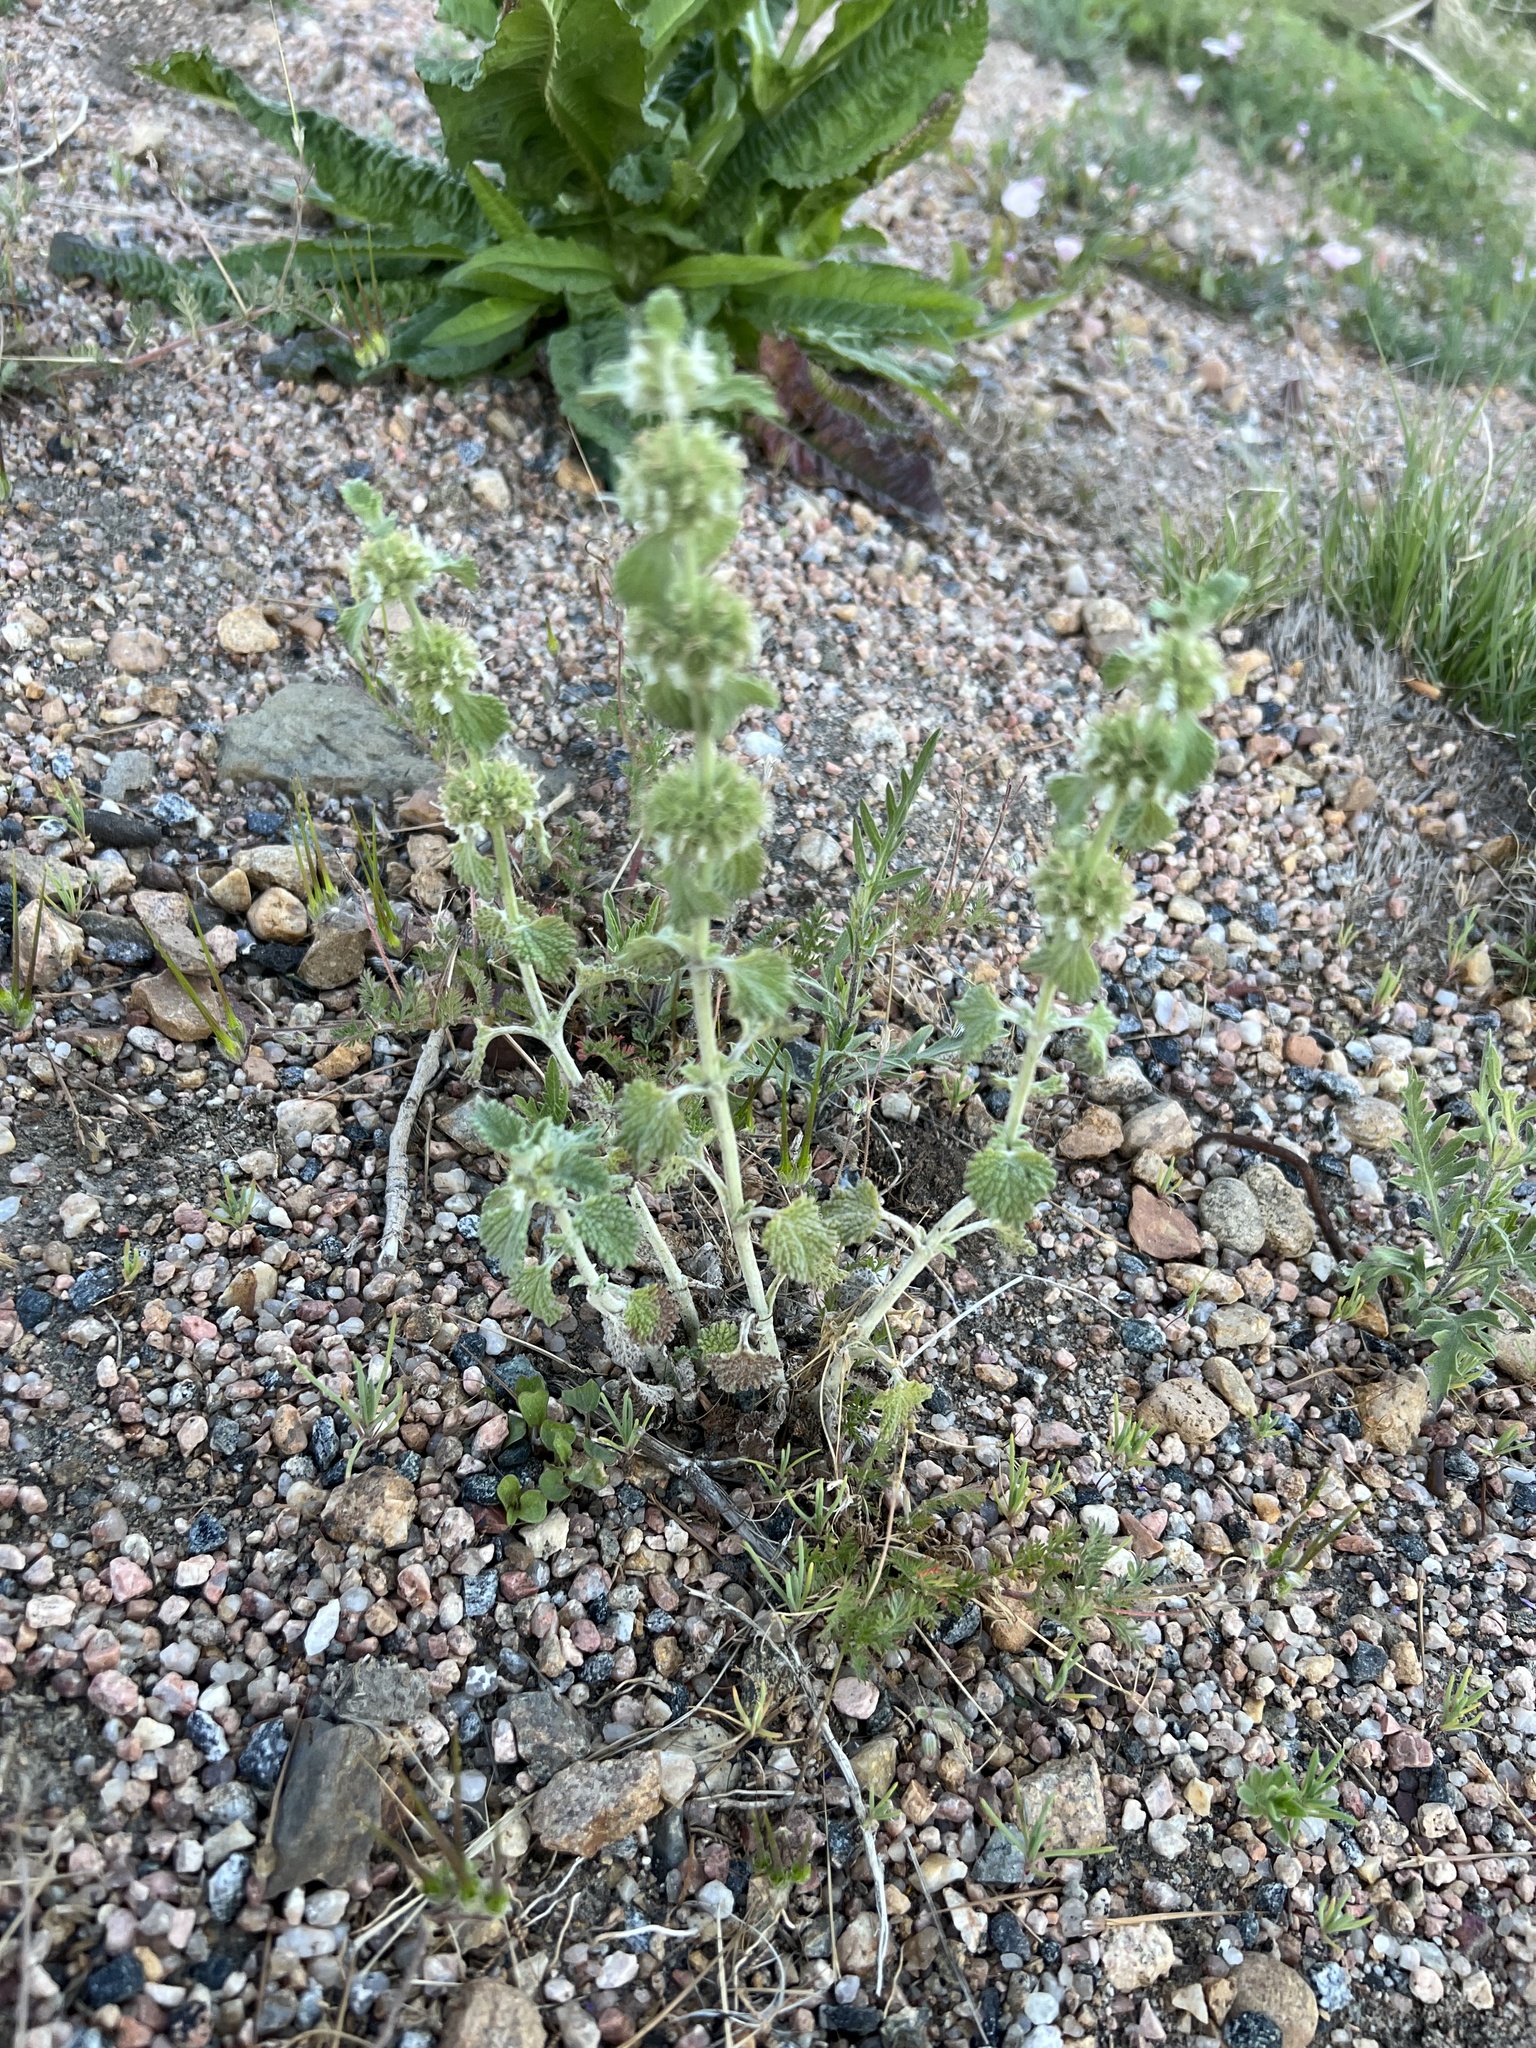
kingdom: Plantae
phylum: Tracheophyta
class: Magnoliopsida
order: Lamiales
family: Lamiaceae
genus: Marrubium
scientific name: Marrubium vulgare
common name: Horehound
